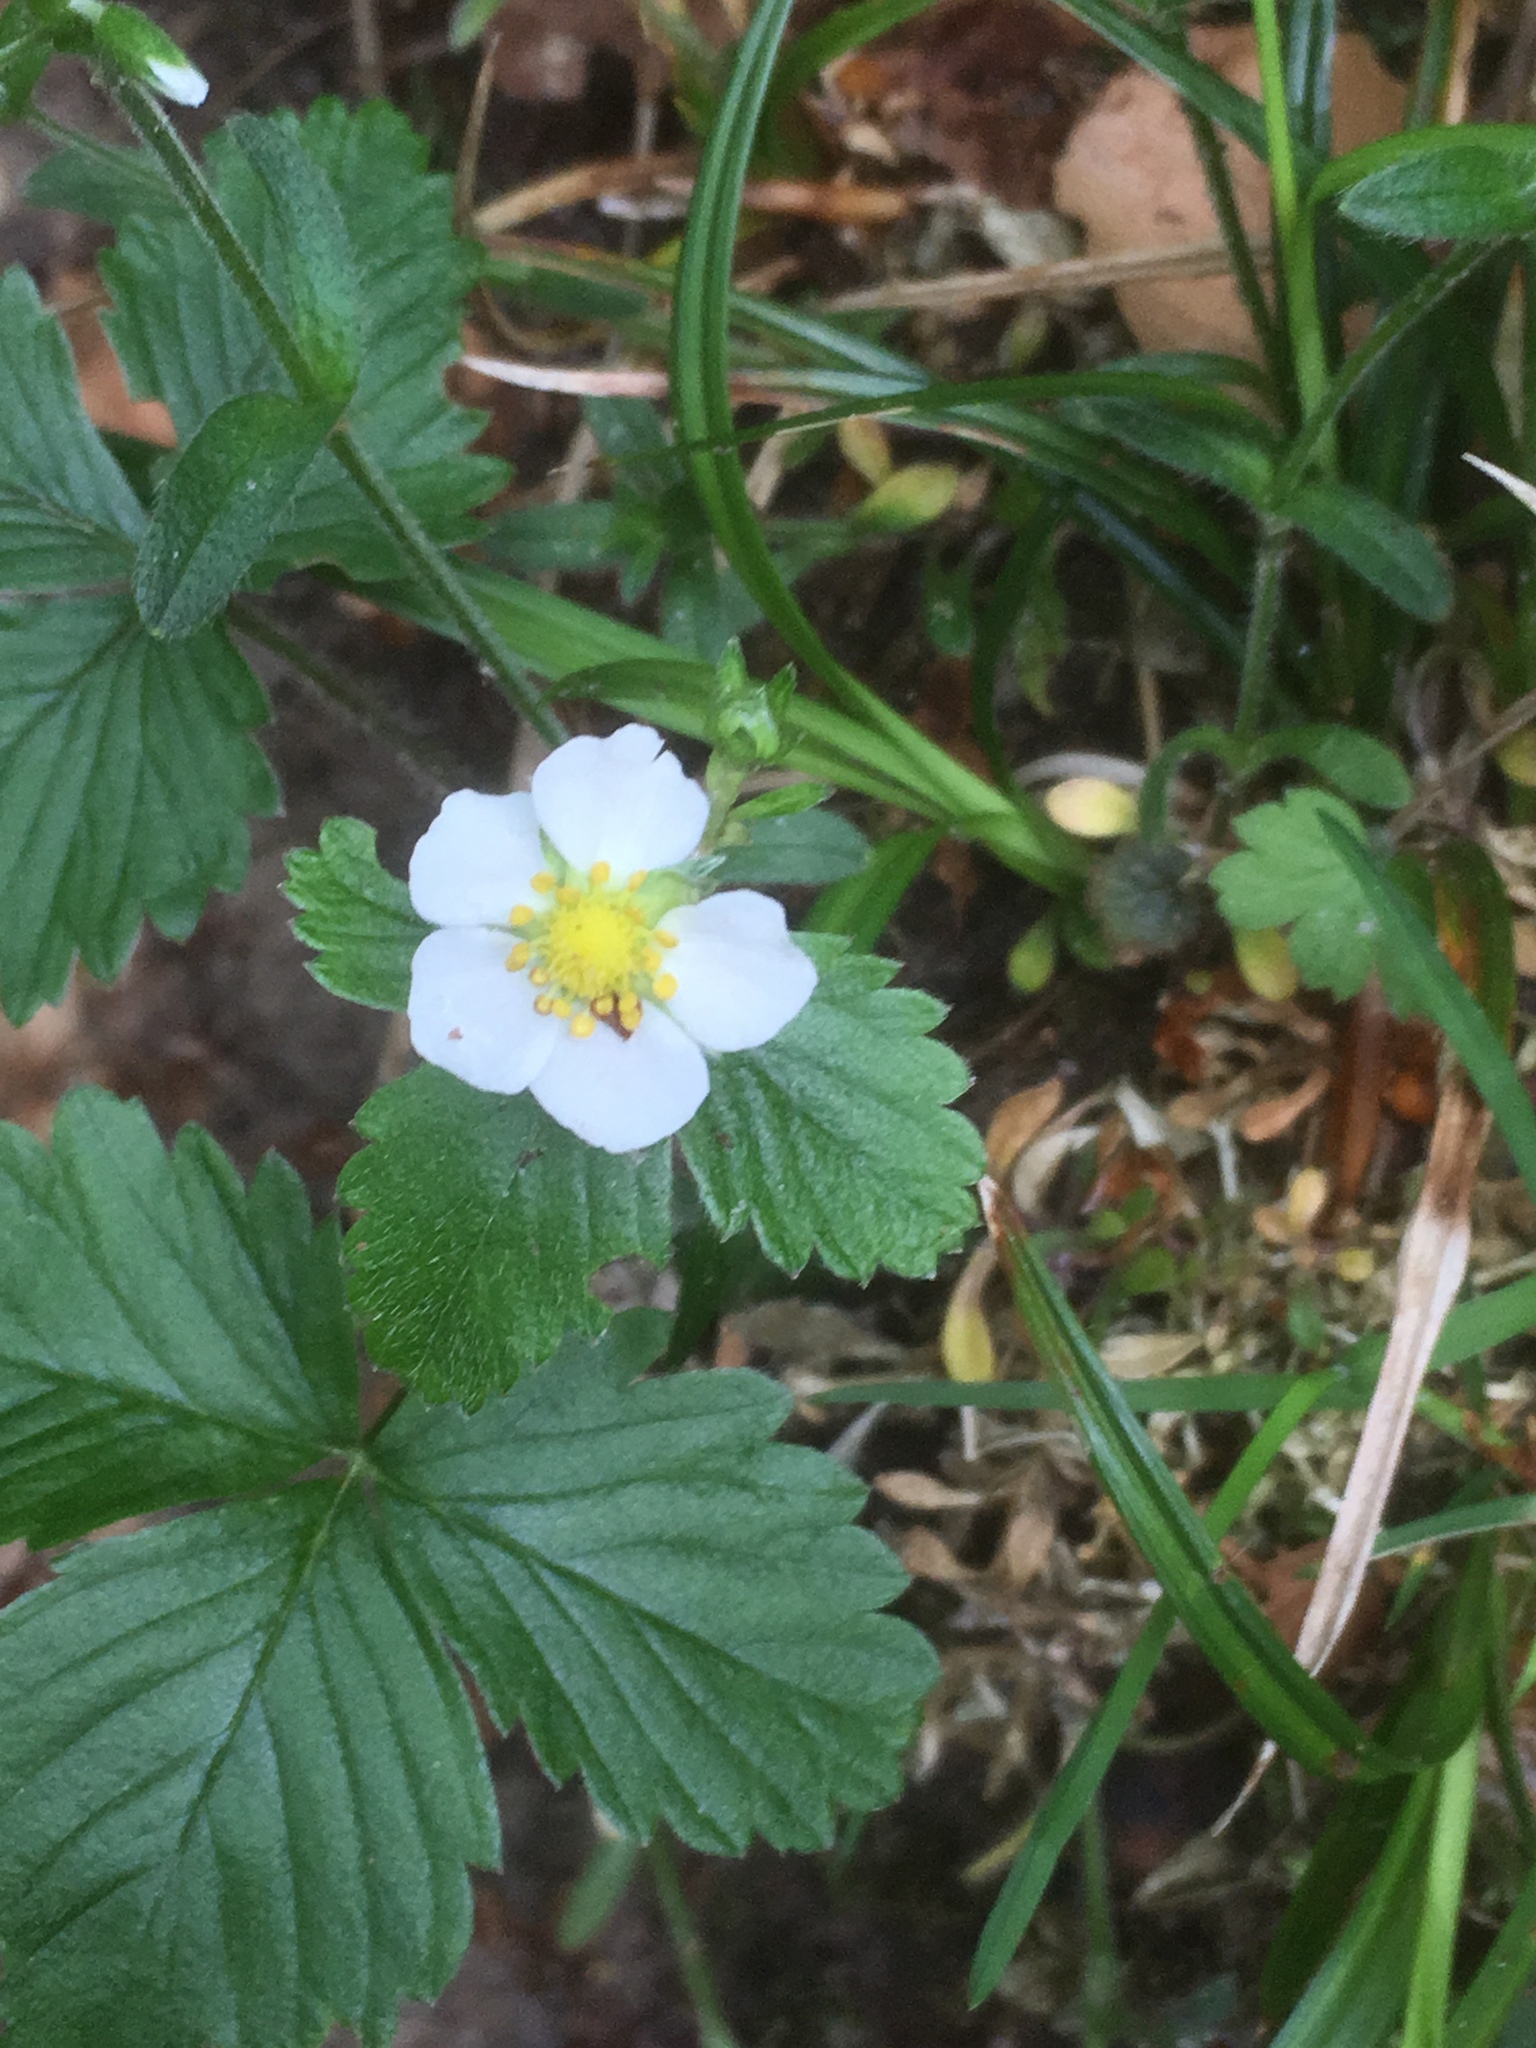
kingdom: Plantae
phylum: Tracheophyta
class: Magnoliopsida
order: Rosales
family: Rosaceae
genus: Fragaria
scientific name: Fragaria vesca
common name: Wild strawberry
